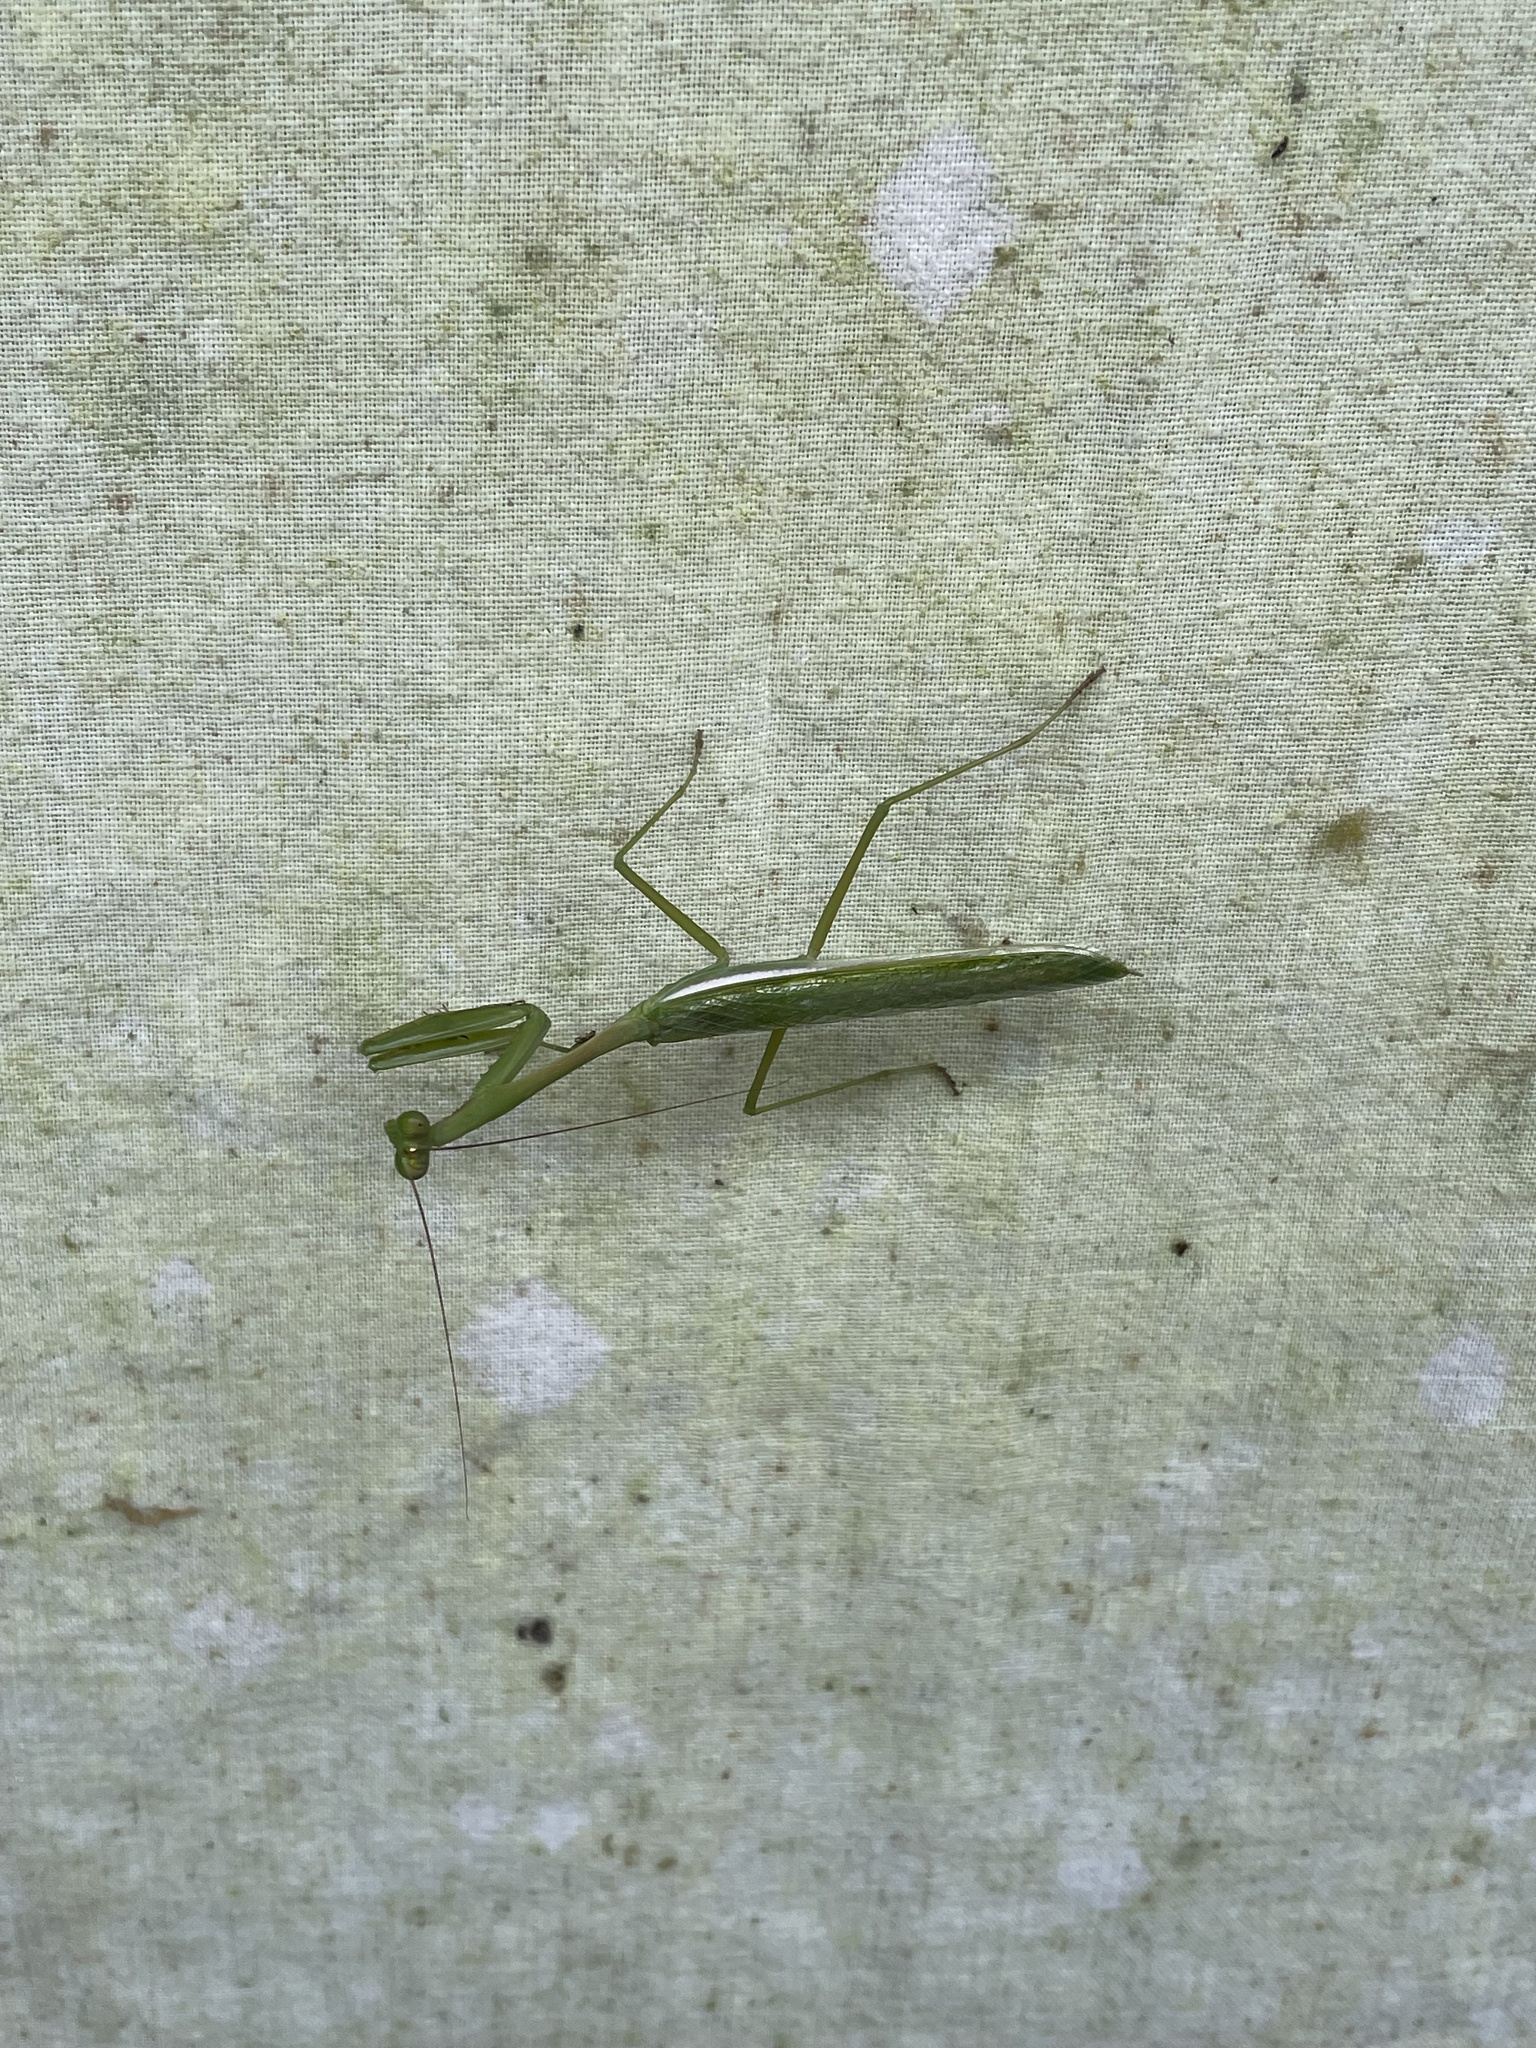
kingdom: Animalia
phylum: Arthropoda
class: Insecta
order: Mantodea
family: Mantidae
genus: Stagmomantis
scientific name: Stagmomantis theophila
